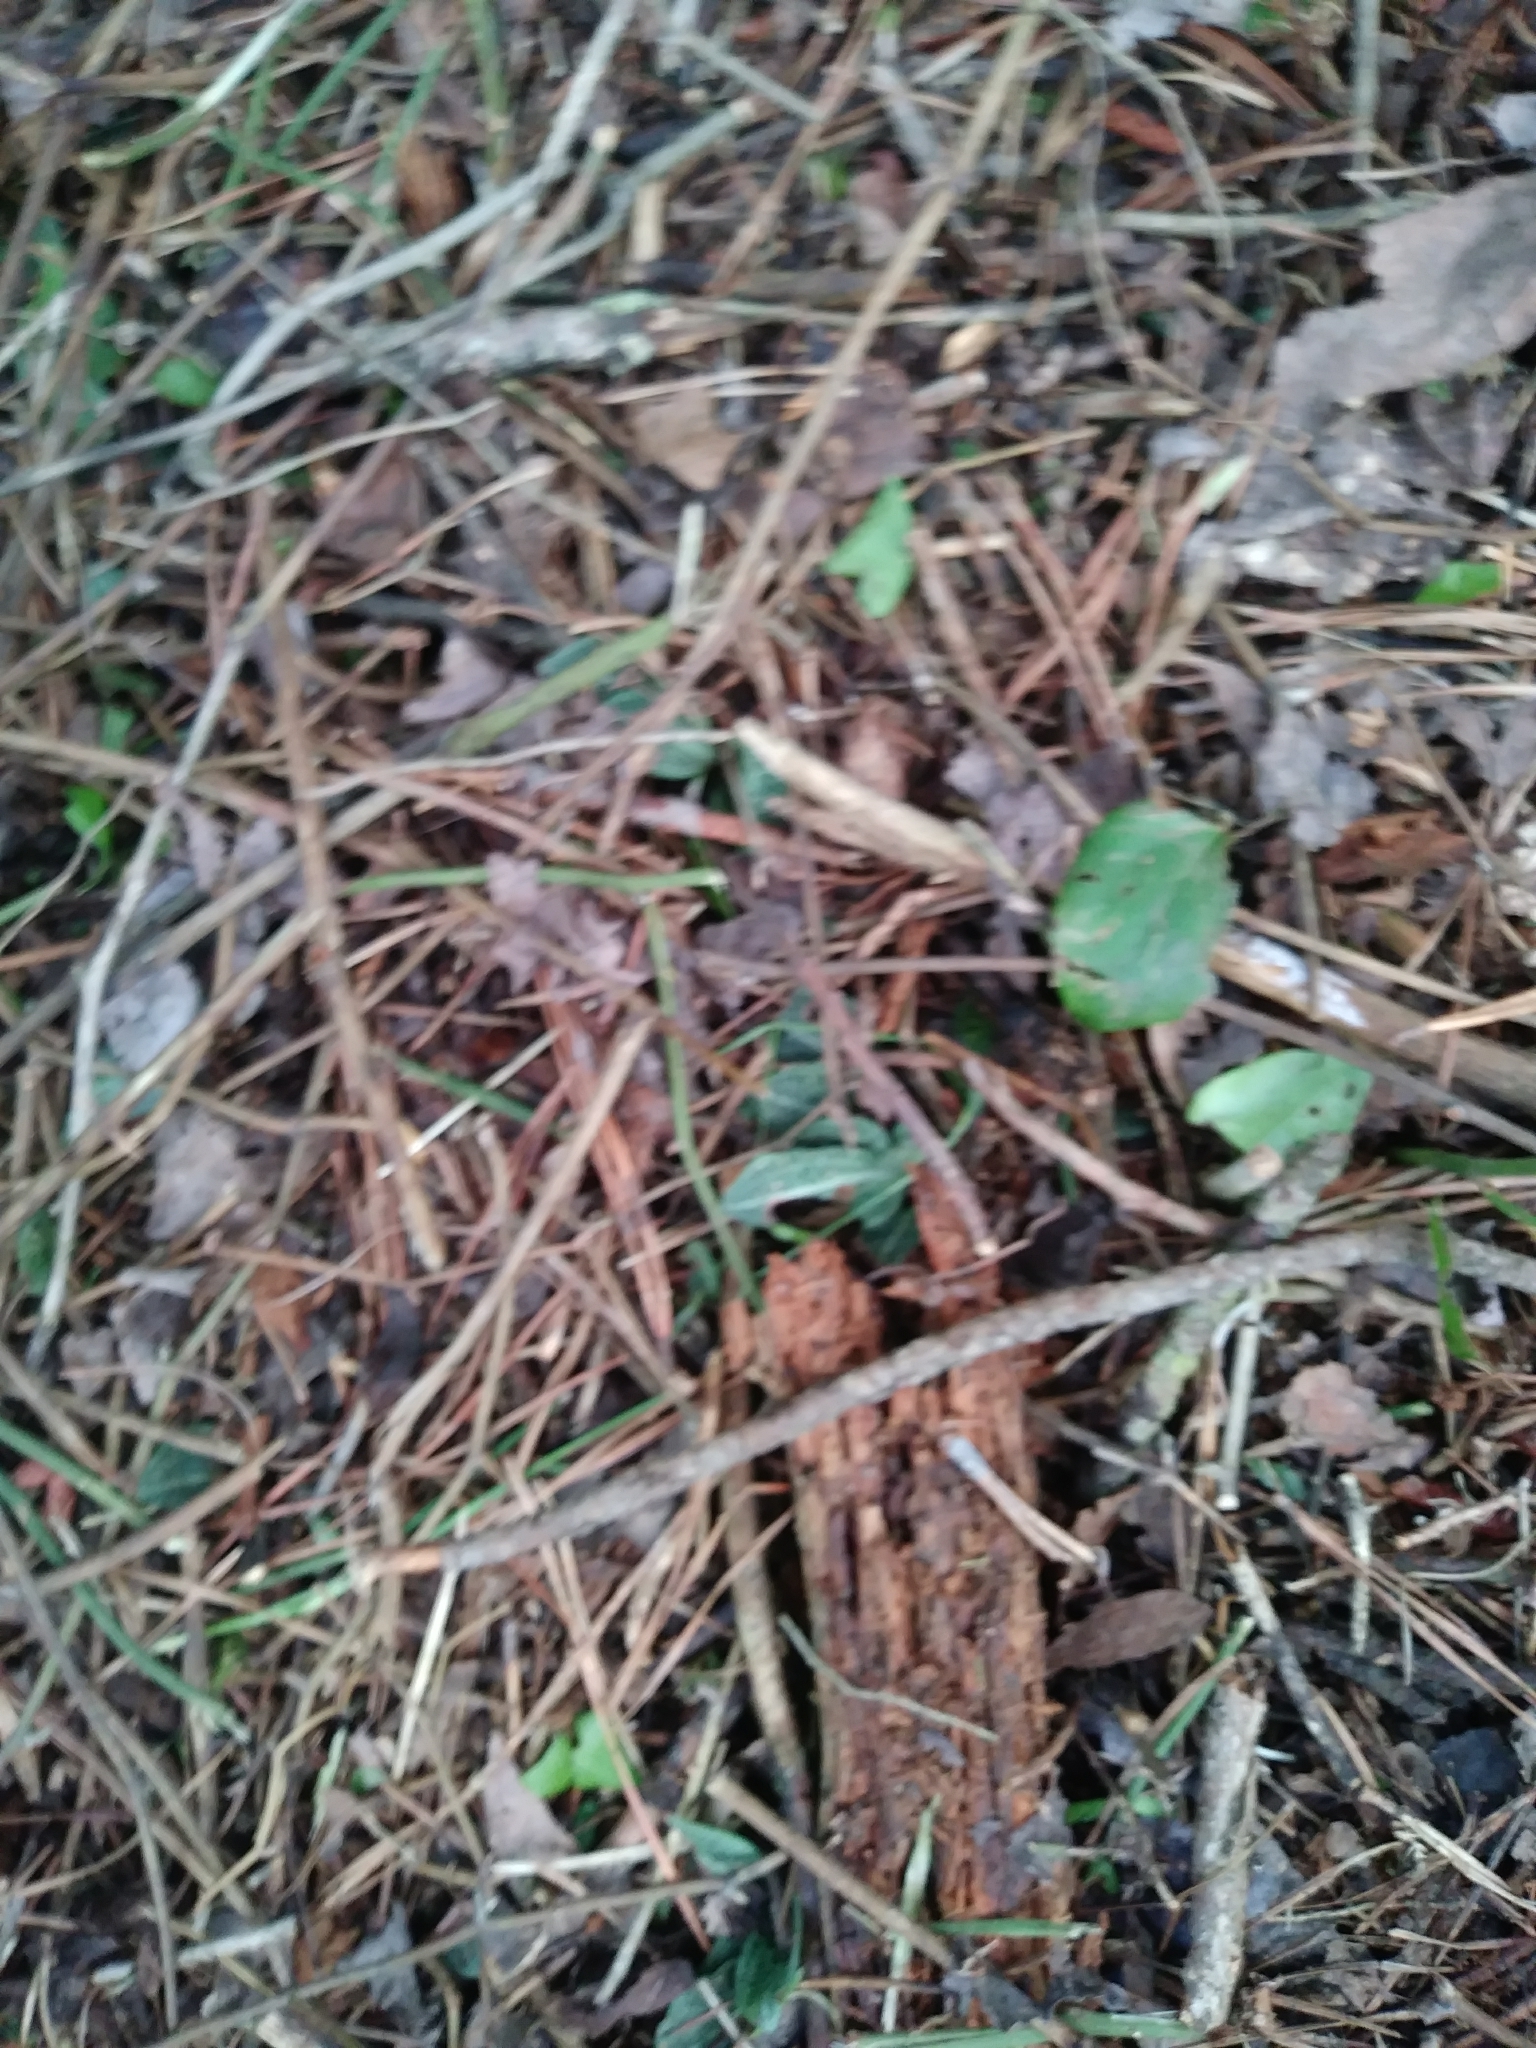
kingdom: Plantae
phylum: Tracheophyta
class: Liliopsida
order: Asparagales
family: Orchidaceae
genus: Goodyera
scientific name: Goodyera pubescens
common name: Downy rattlesnake-plantain
